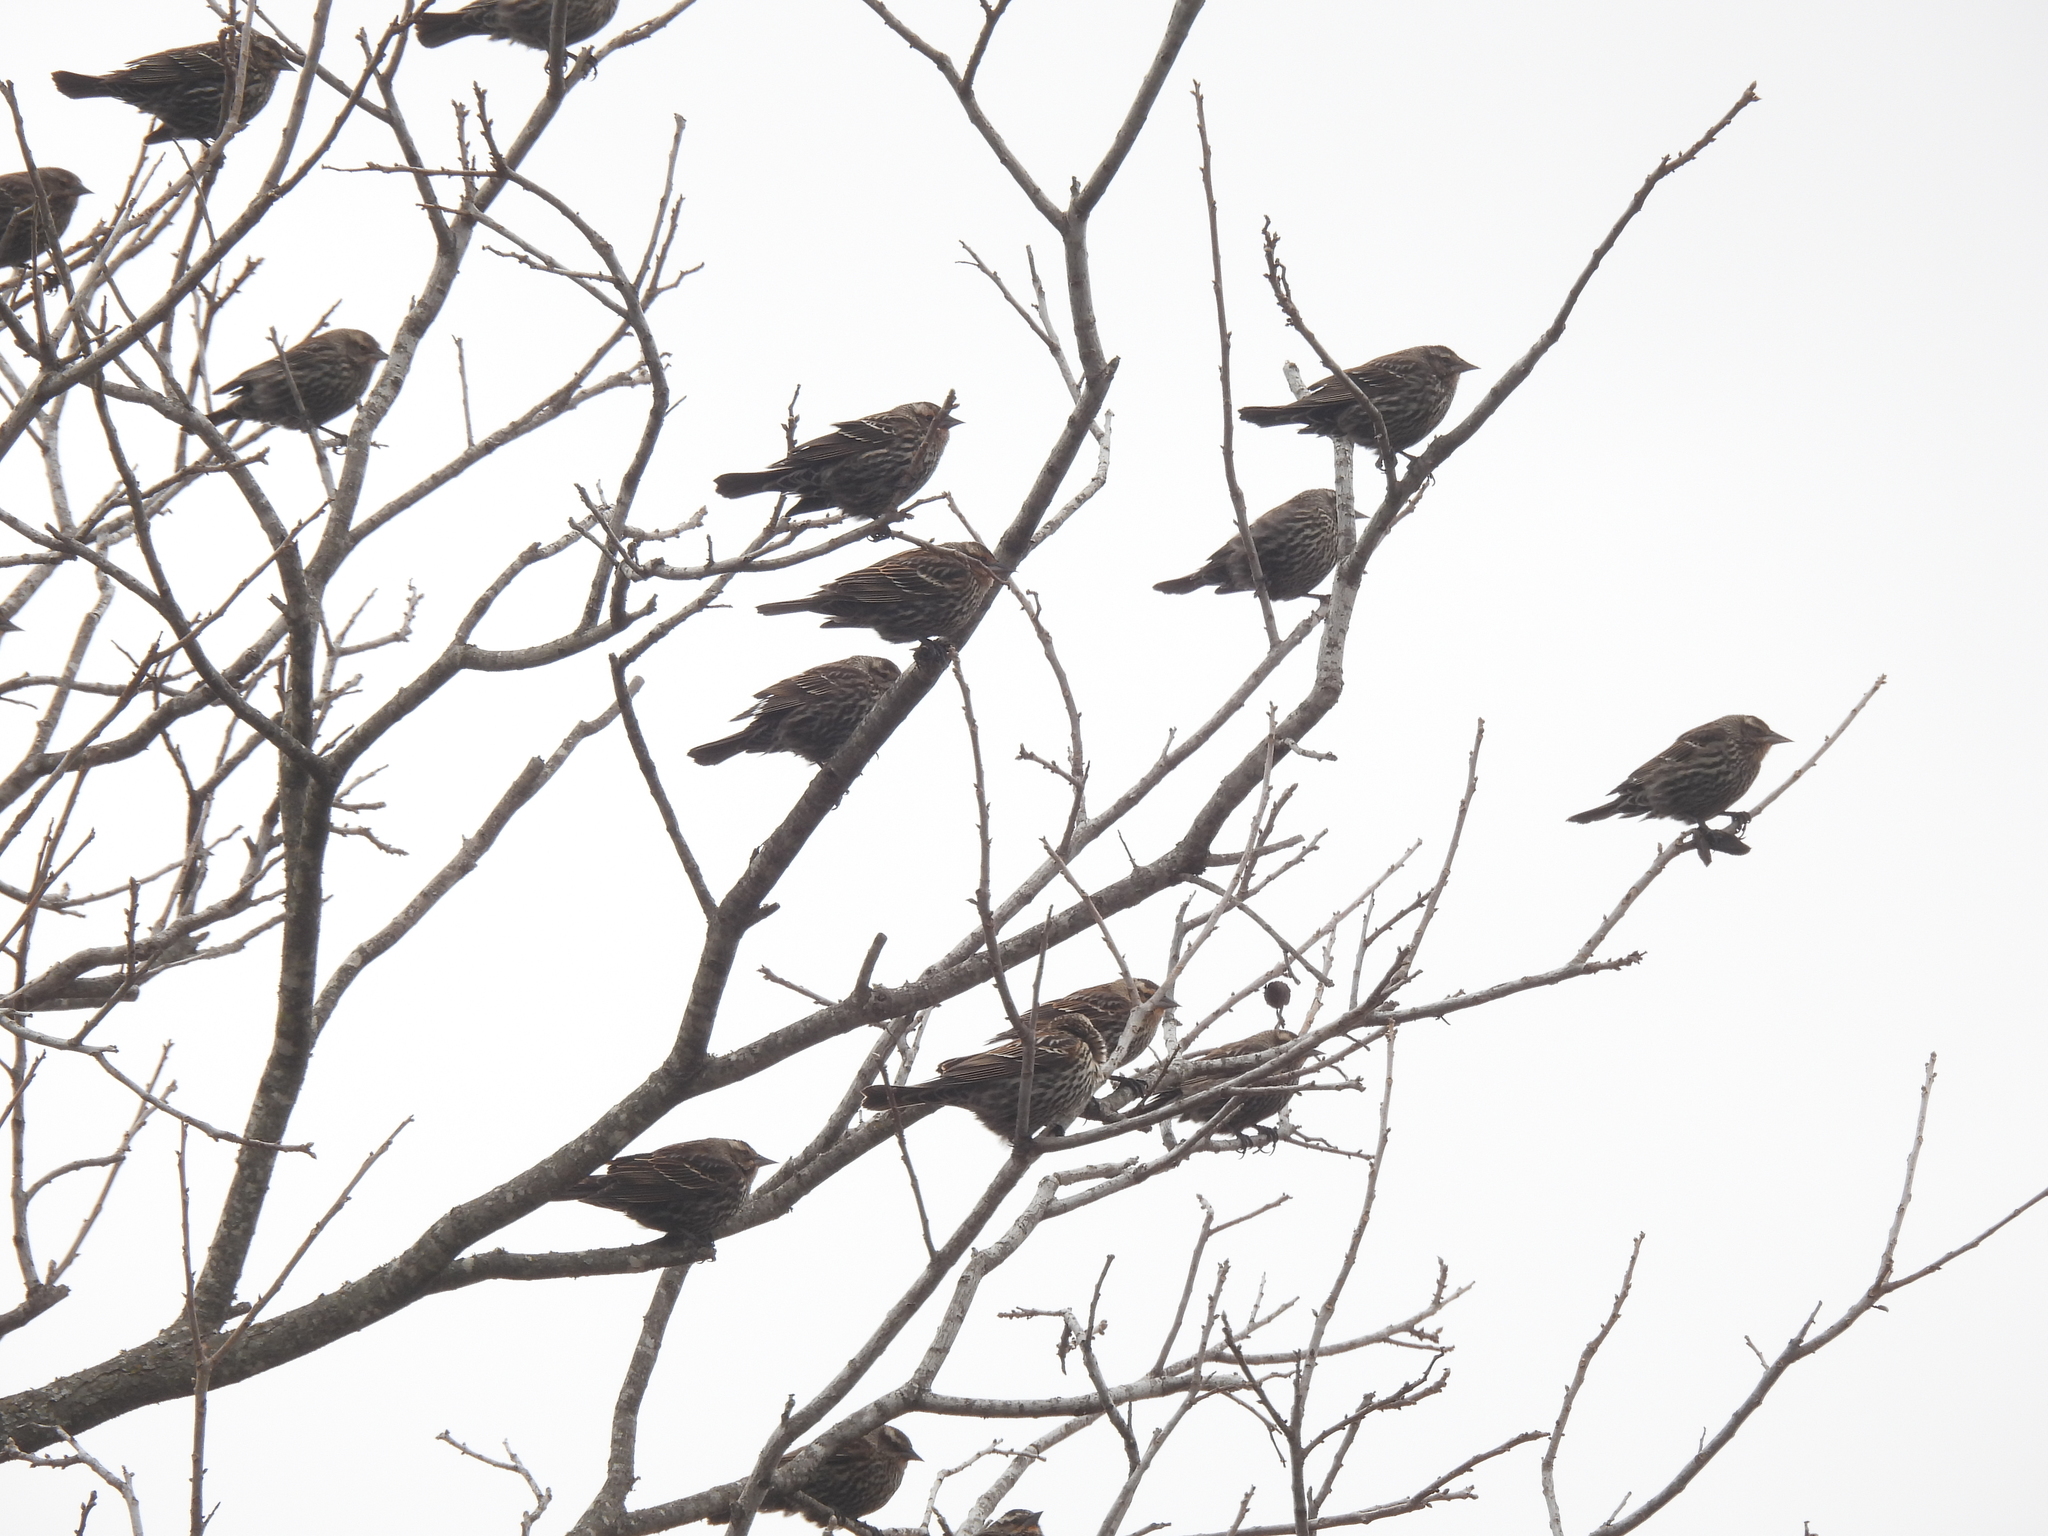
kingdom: Animalia
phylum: Chordata
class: Aves
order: Passeriformes
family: Icteridae
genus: Agelaius
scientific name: Agelaius phoeniceus
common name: Red-winged blackbird
